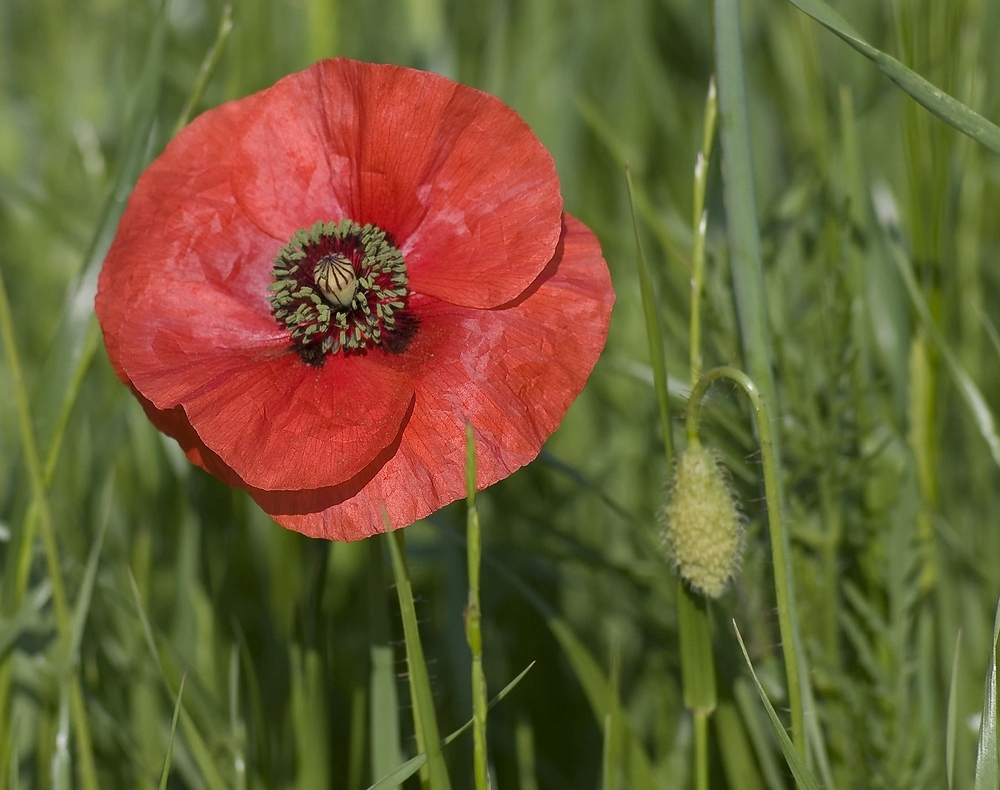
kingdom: Plantae
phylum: Tracheophyta
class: Magnoliopsida
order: Ranunculales
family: Papaveraceae
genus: Papaver
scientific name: Papaver rhoeas
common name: Corn poppy
